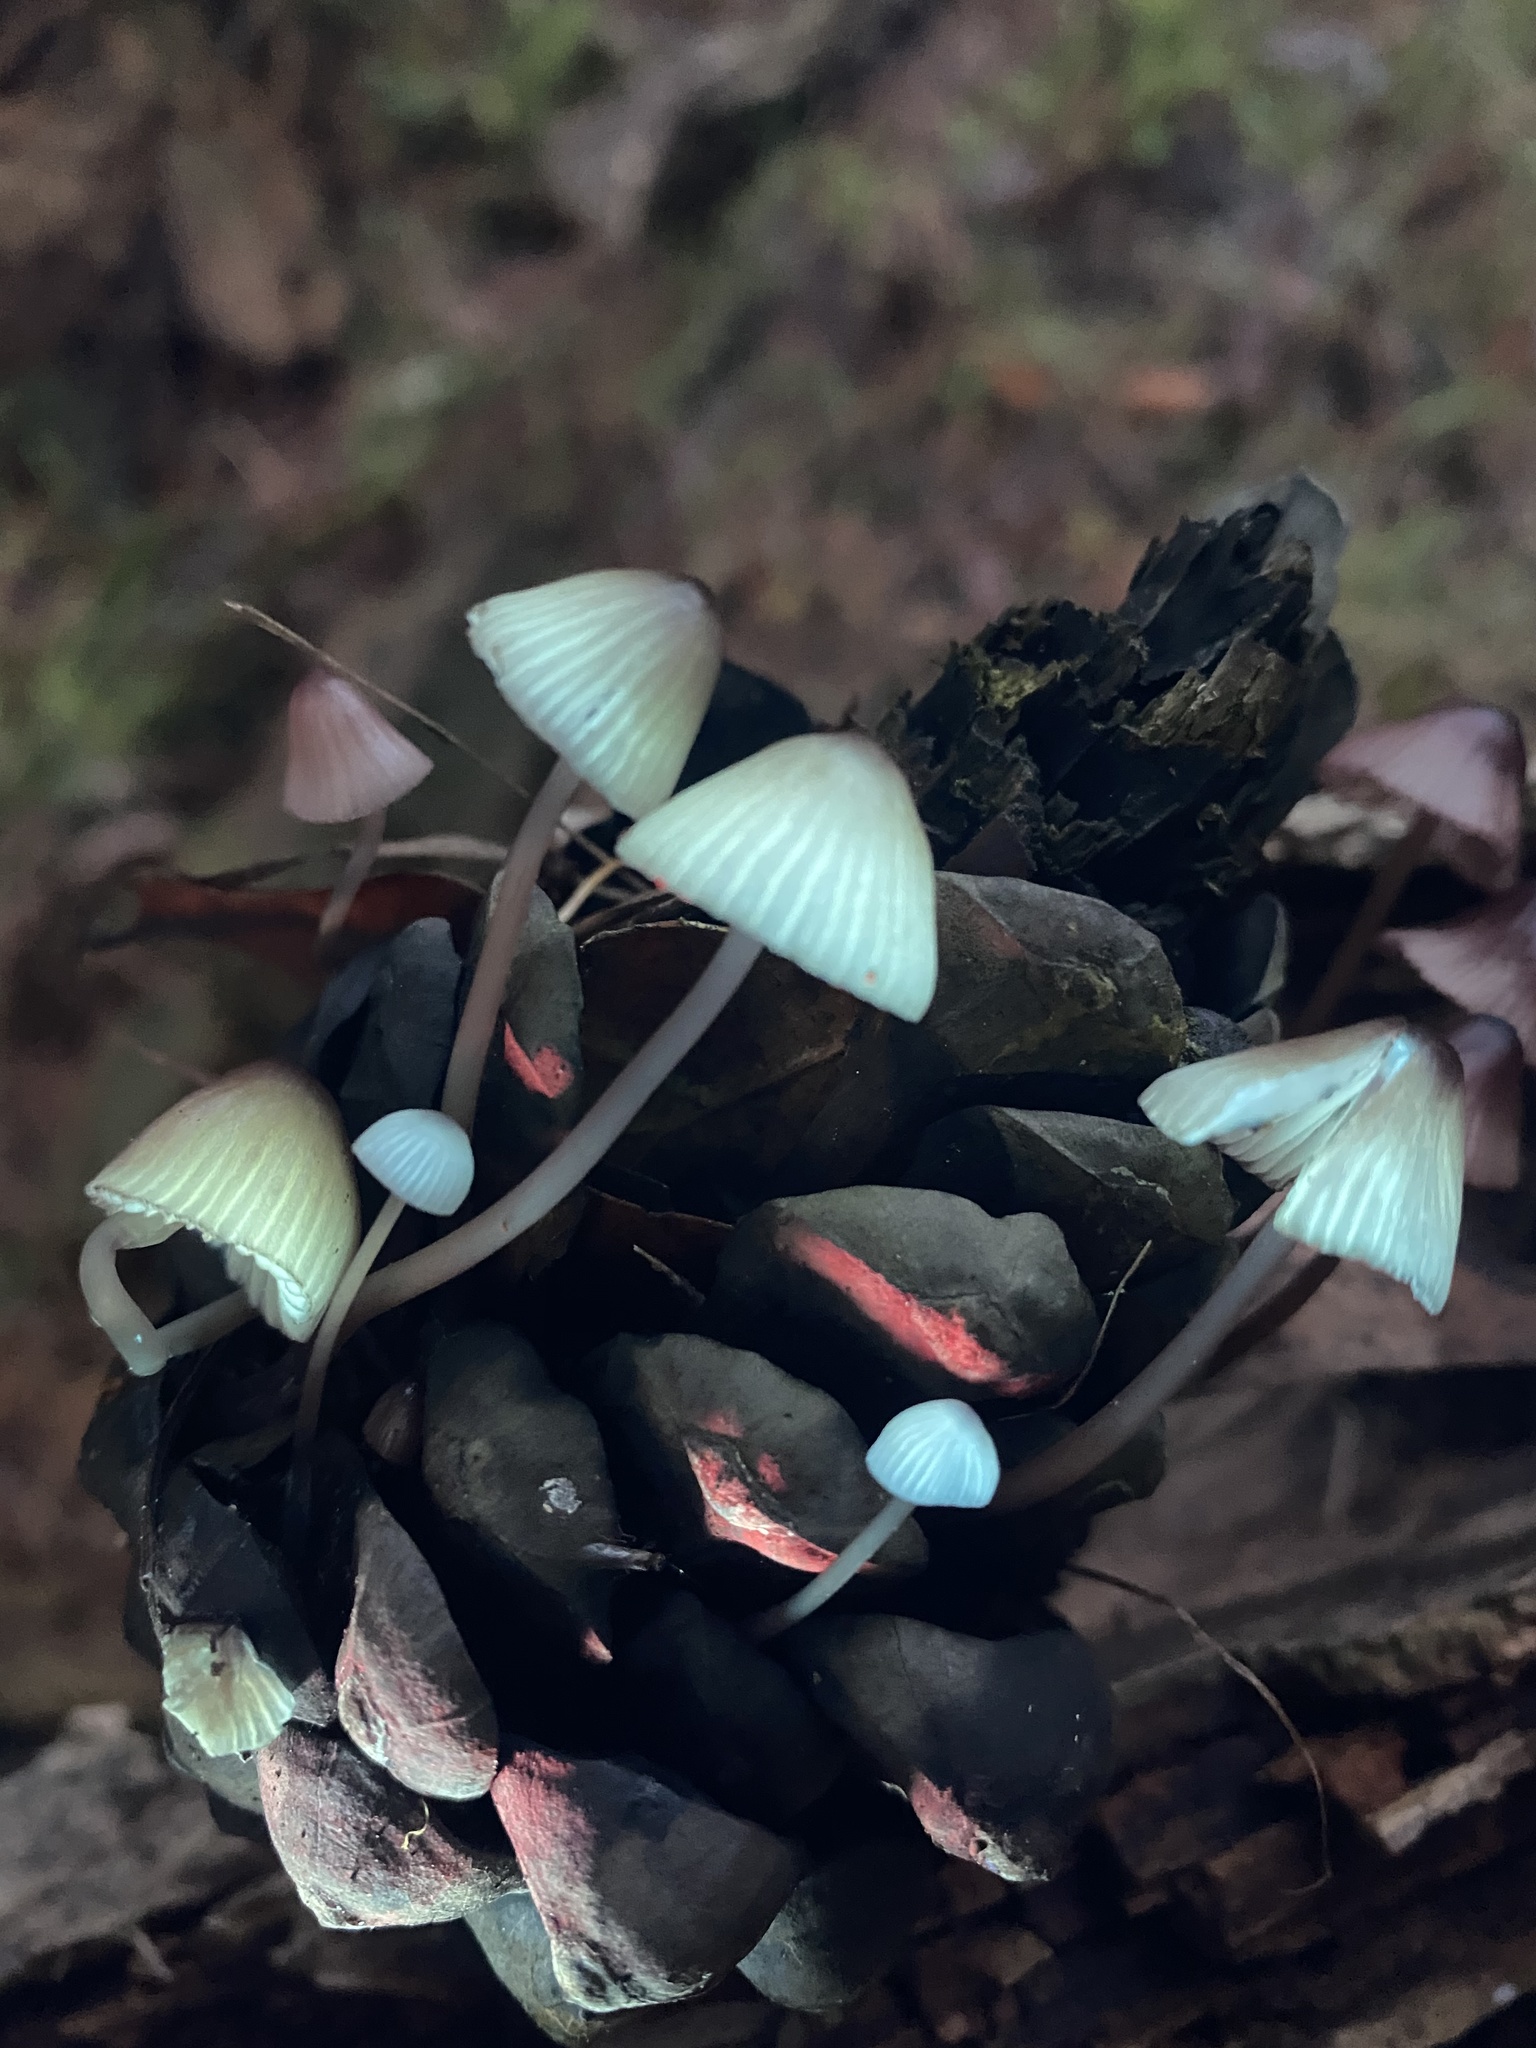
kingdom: Fungi
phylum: Basidiomycota
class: Agaricomycetes
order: Agaricales
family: Mycenaceae
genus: Mycena
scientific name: Mycena purpureofusca
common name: Purple edge bonnet
